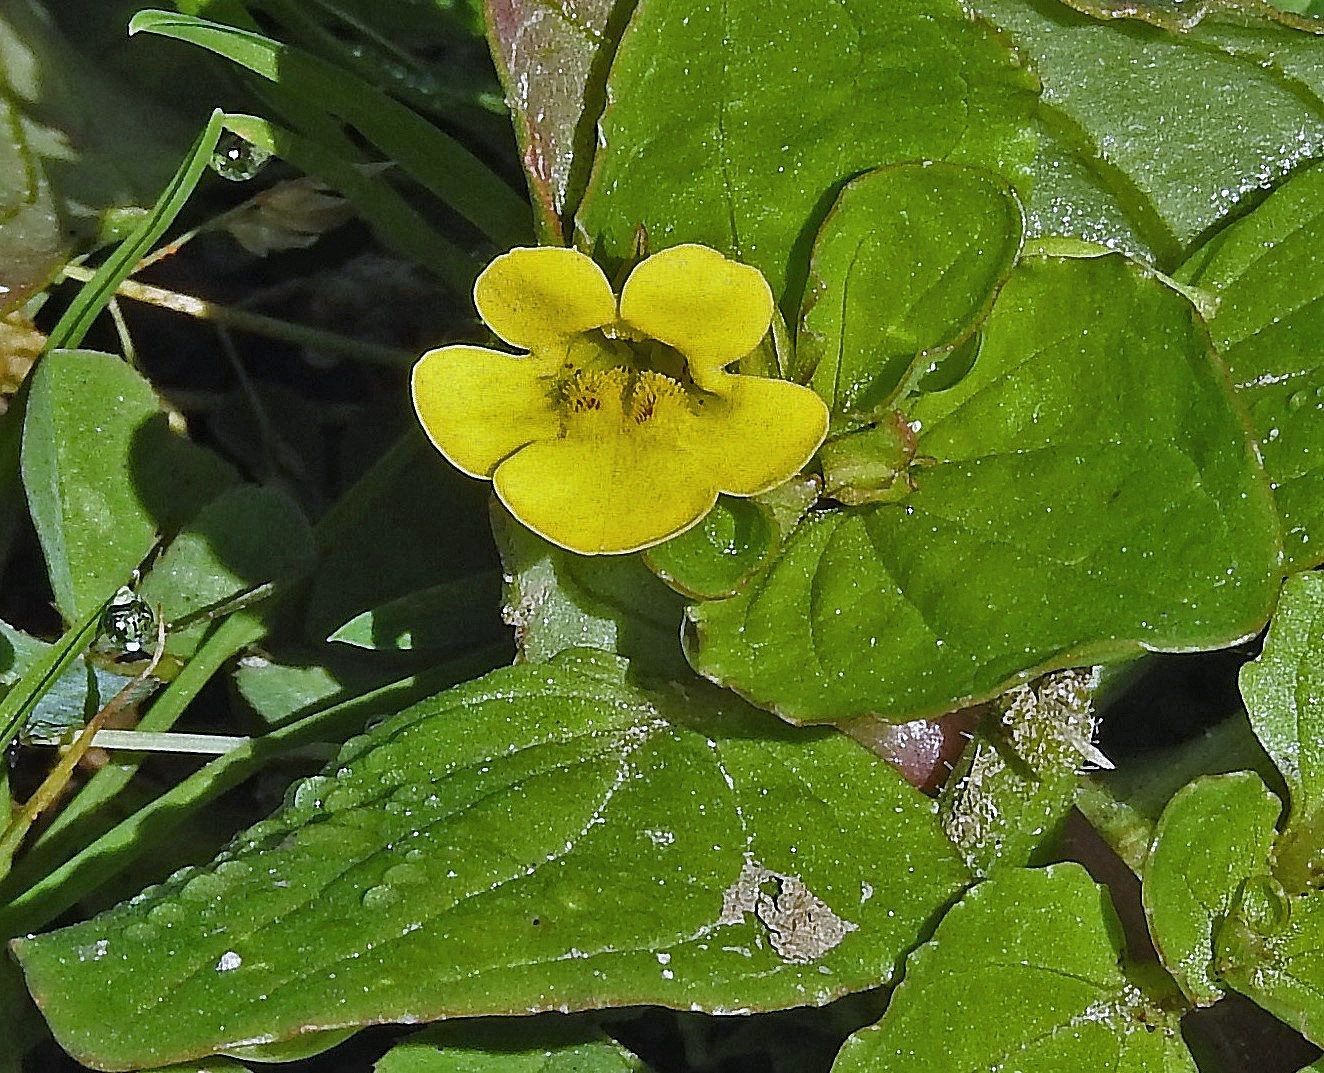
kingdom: Plantae
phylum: Tracheophyta
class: Magnoliopsida
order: Lamiales
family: Phrymaceae
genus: Erythranthe
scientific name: Erythranthe glabrata
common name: Round-leaved monkeyflower
